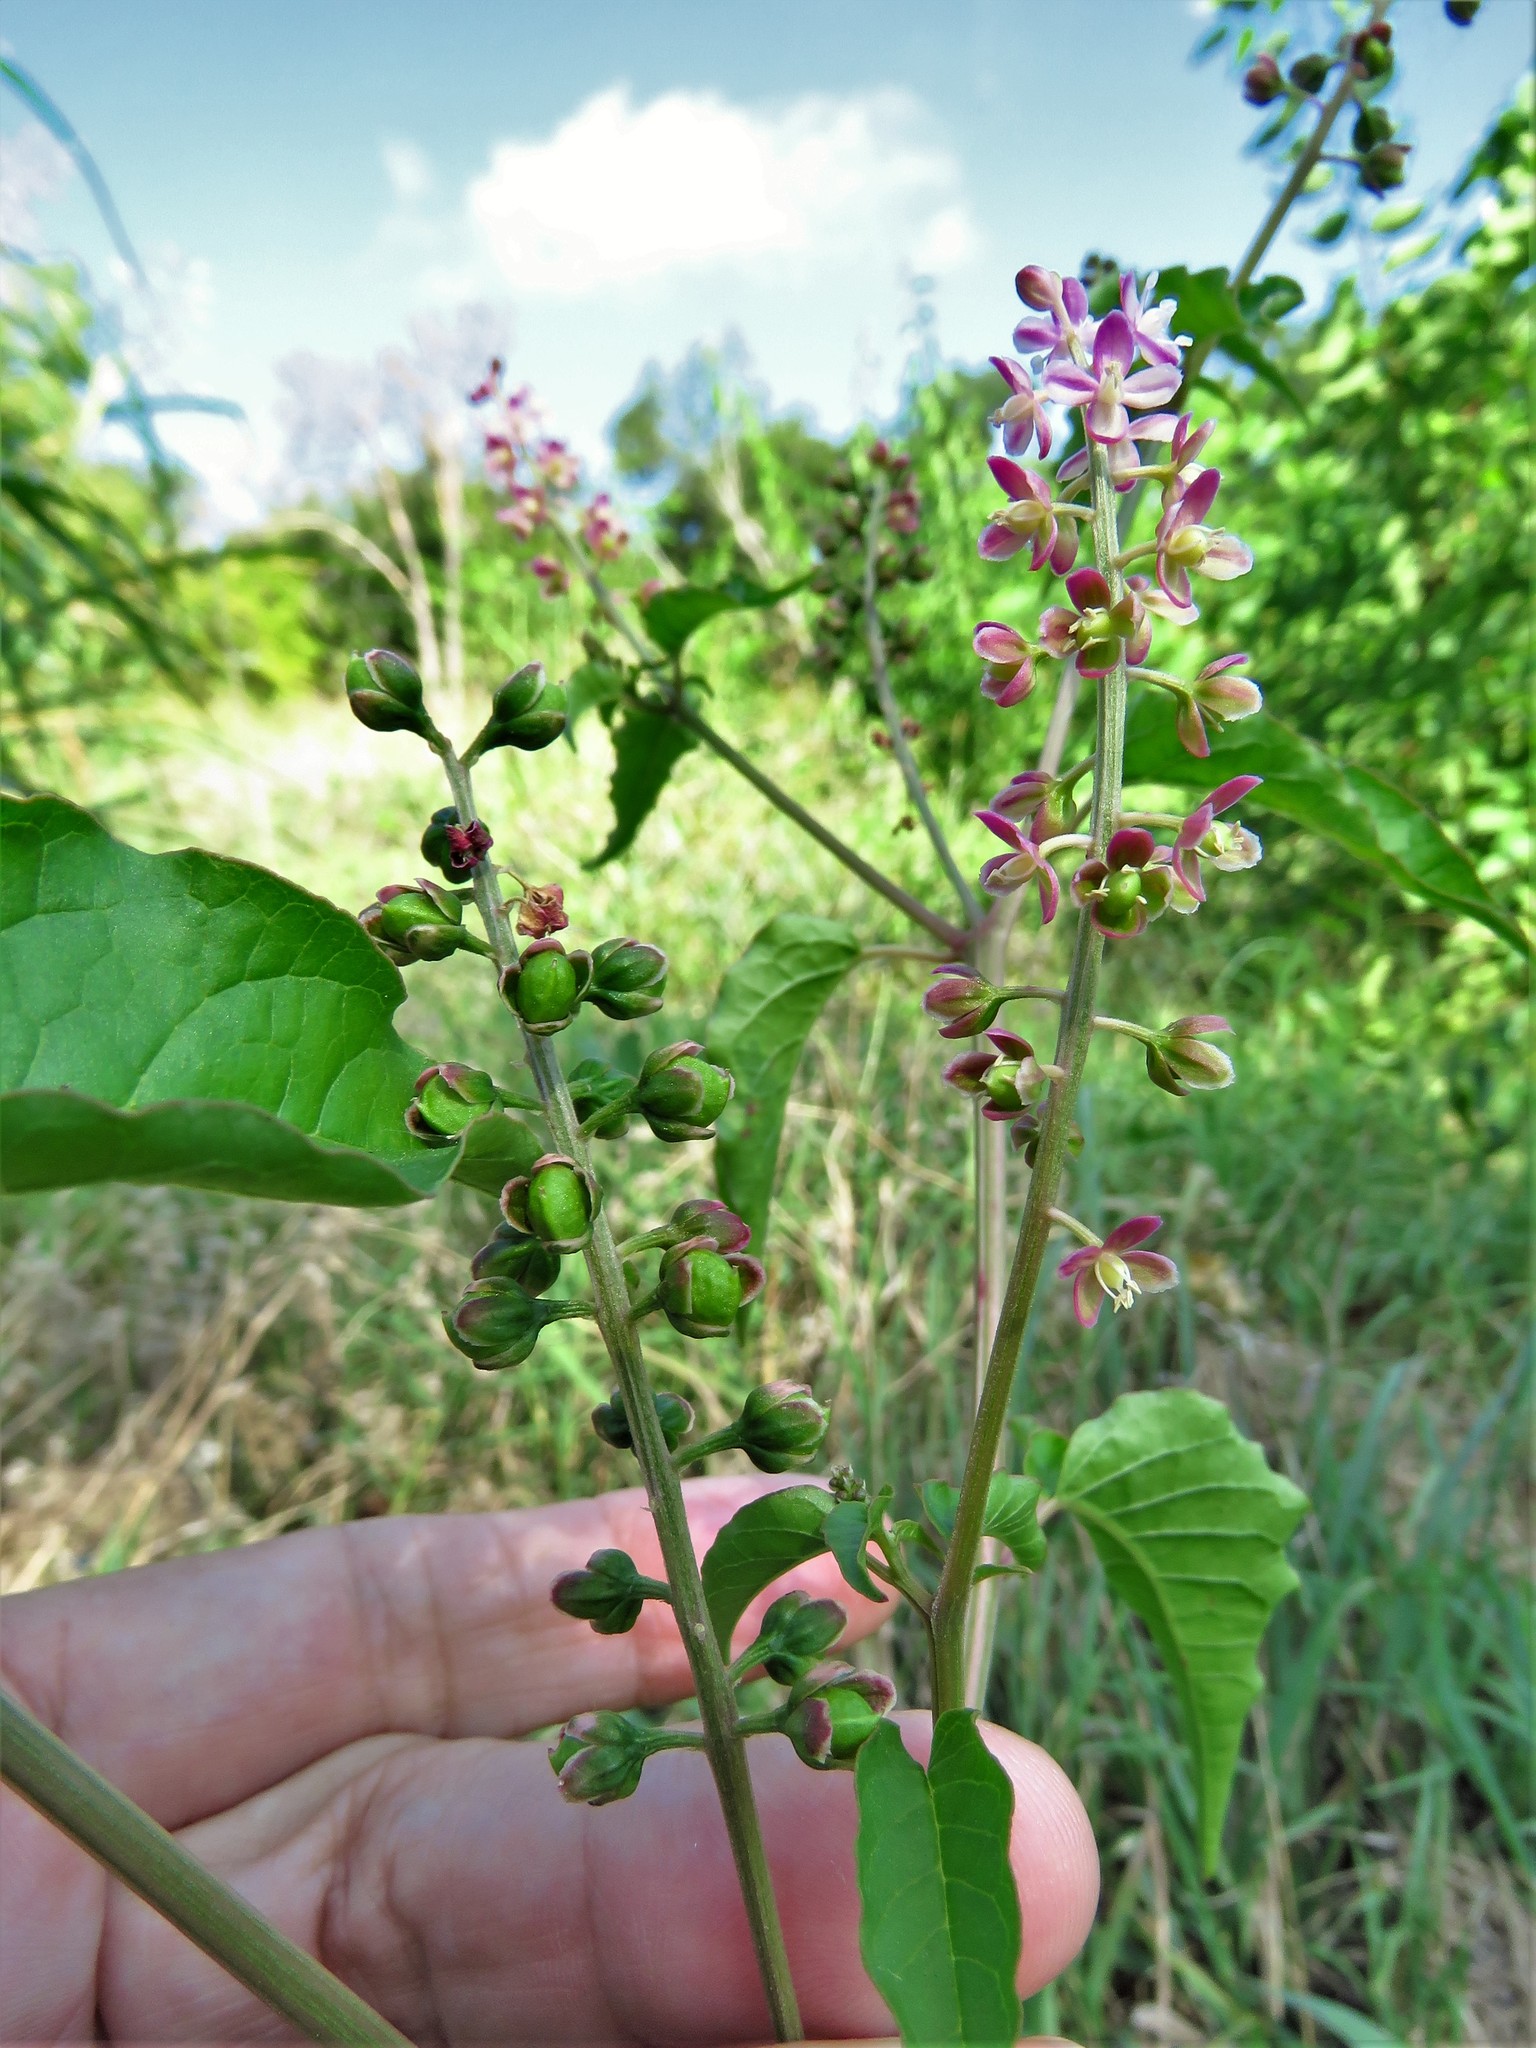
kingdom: Plantae
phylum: Tracheophyta
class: Magnoliopsida
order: Caryophyllales
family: Phytolaccaceae
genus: Rivina
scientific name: Rivina humilis
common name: Rougeplant
